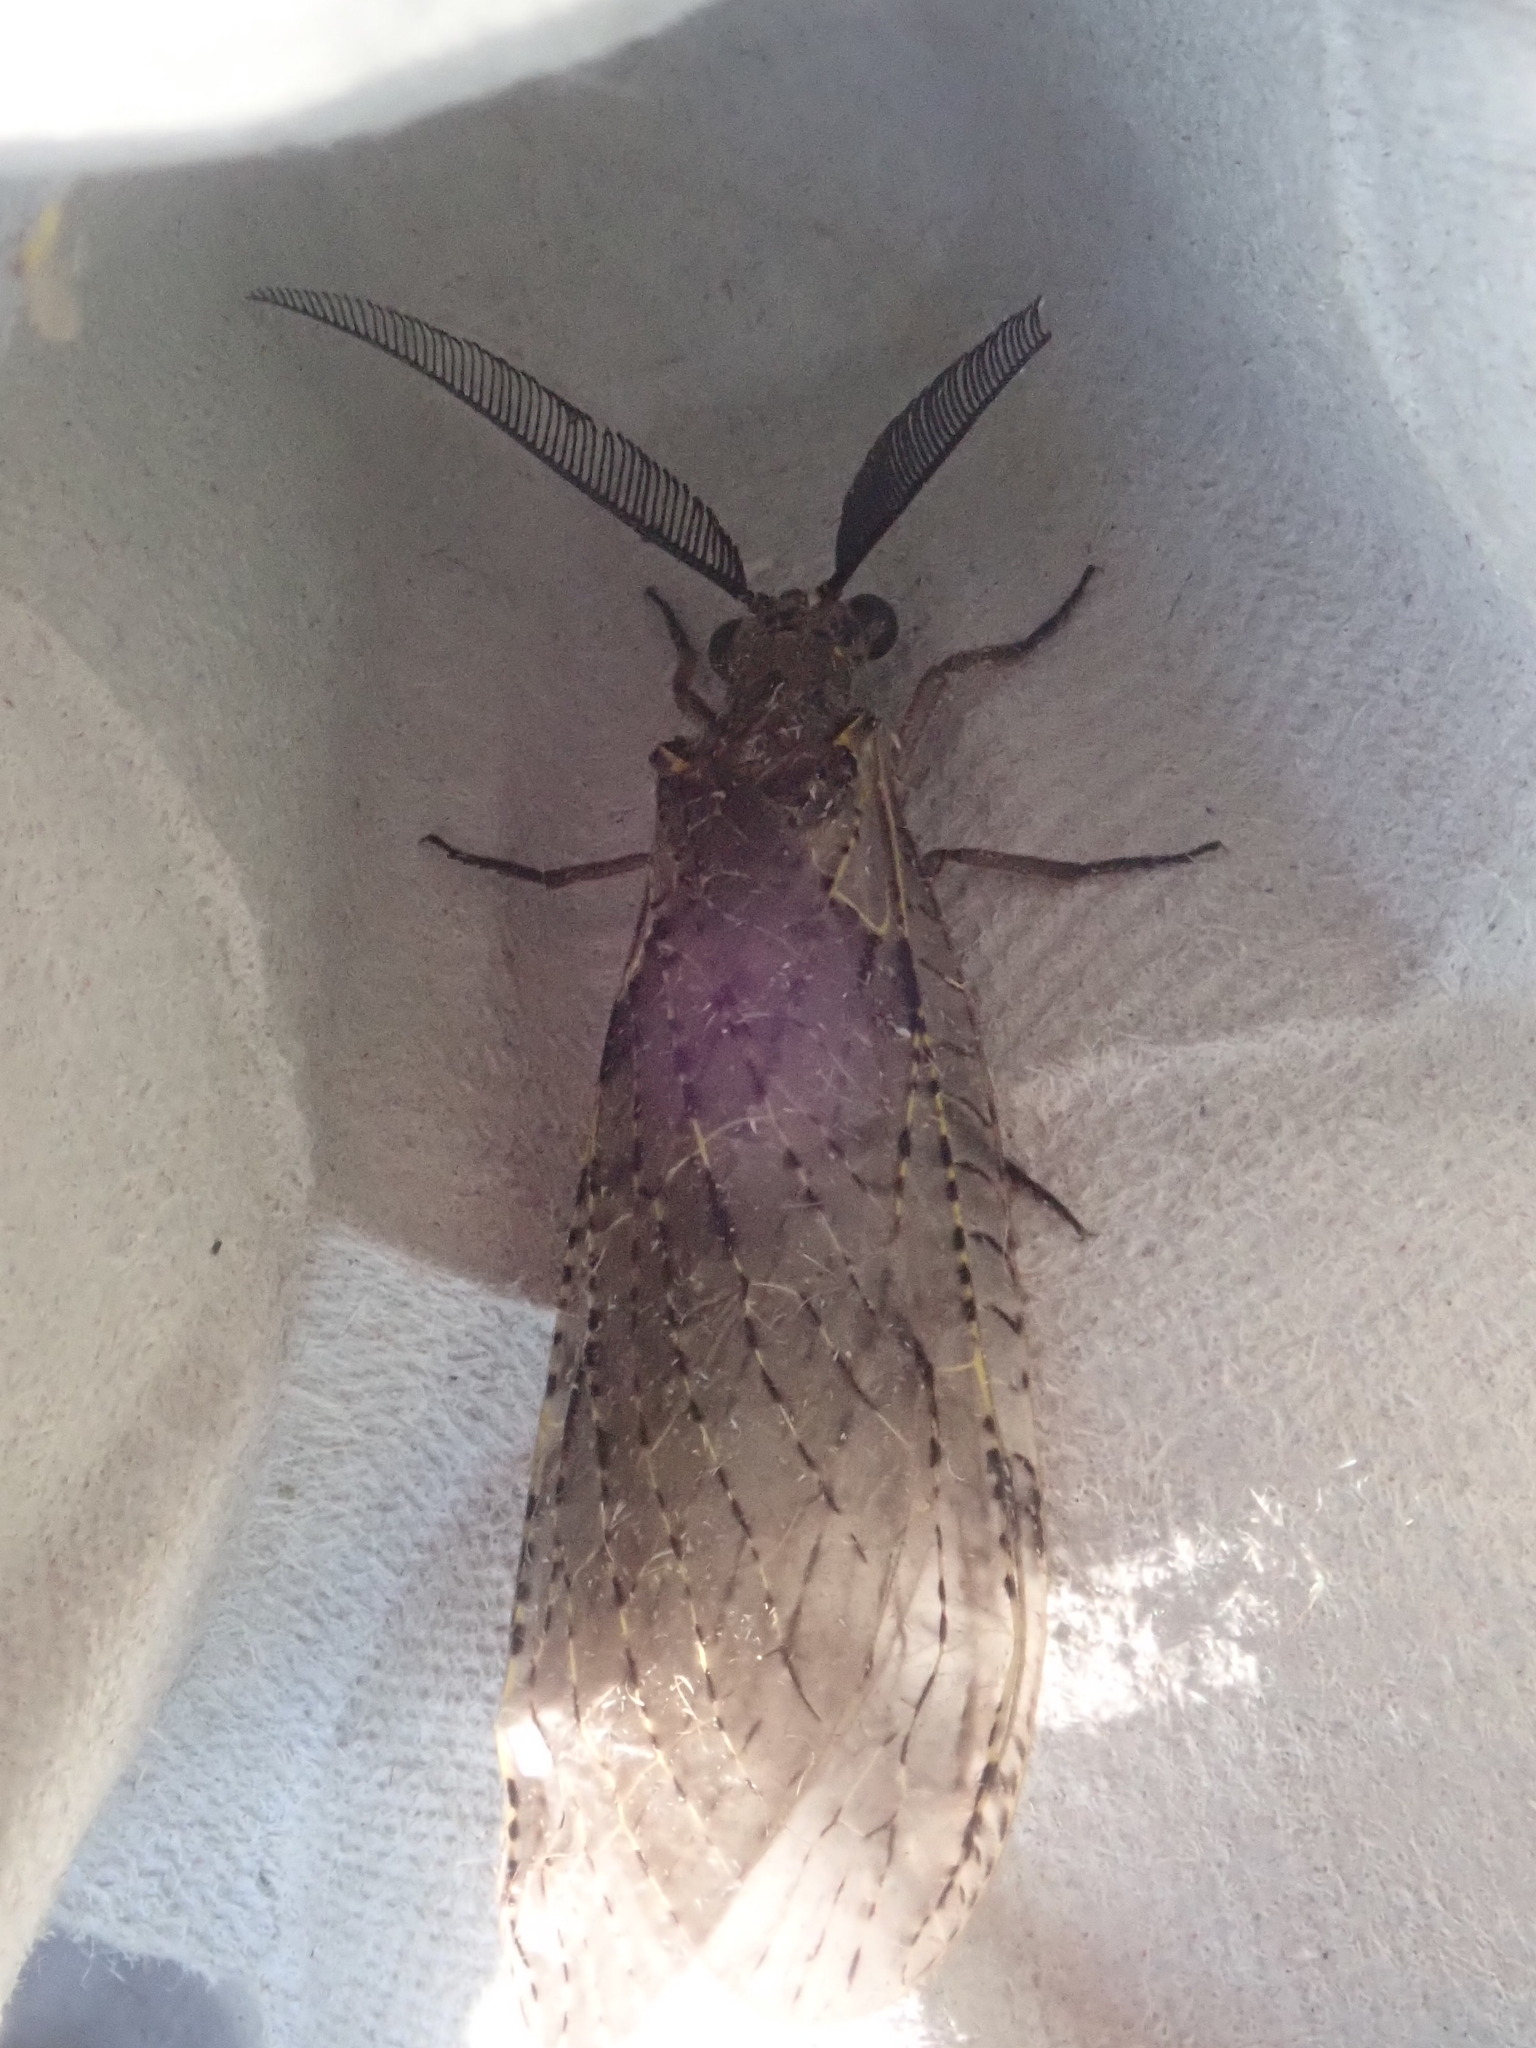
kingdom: Animalia
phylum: Arthropoda
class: Insecta
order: Megaloptera
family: Corydalidae
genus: Chauliodes
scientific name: Chauliodes rastricornis
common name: Spring fishfly
